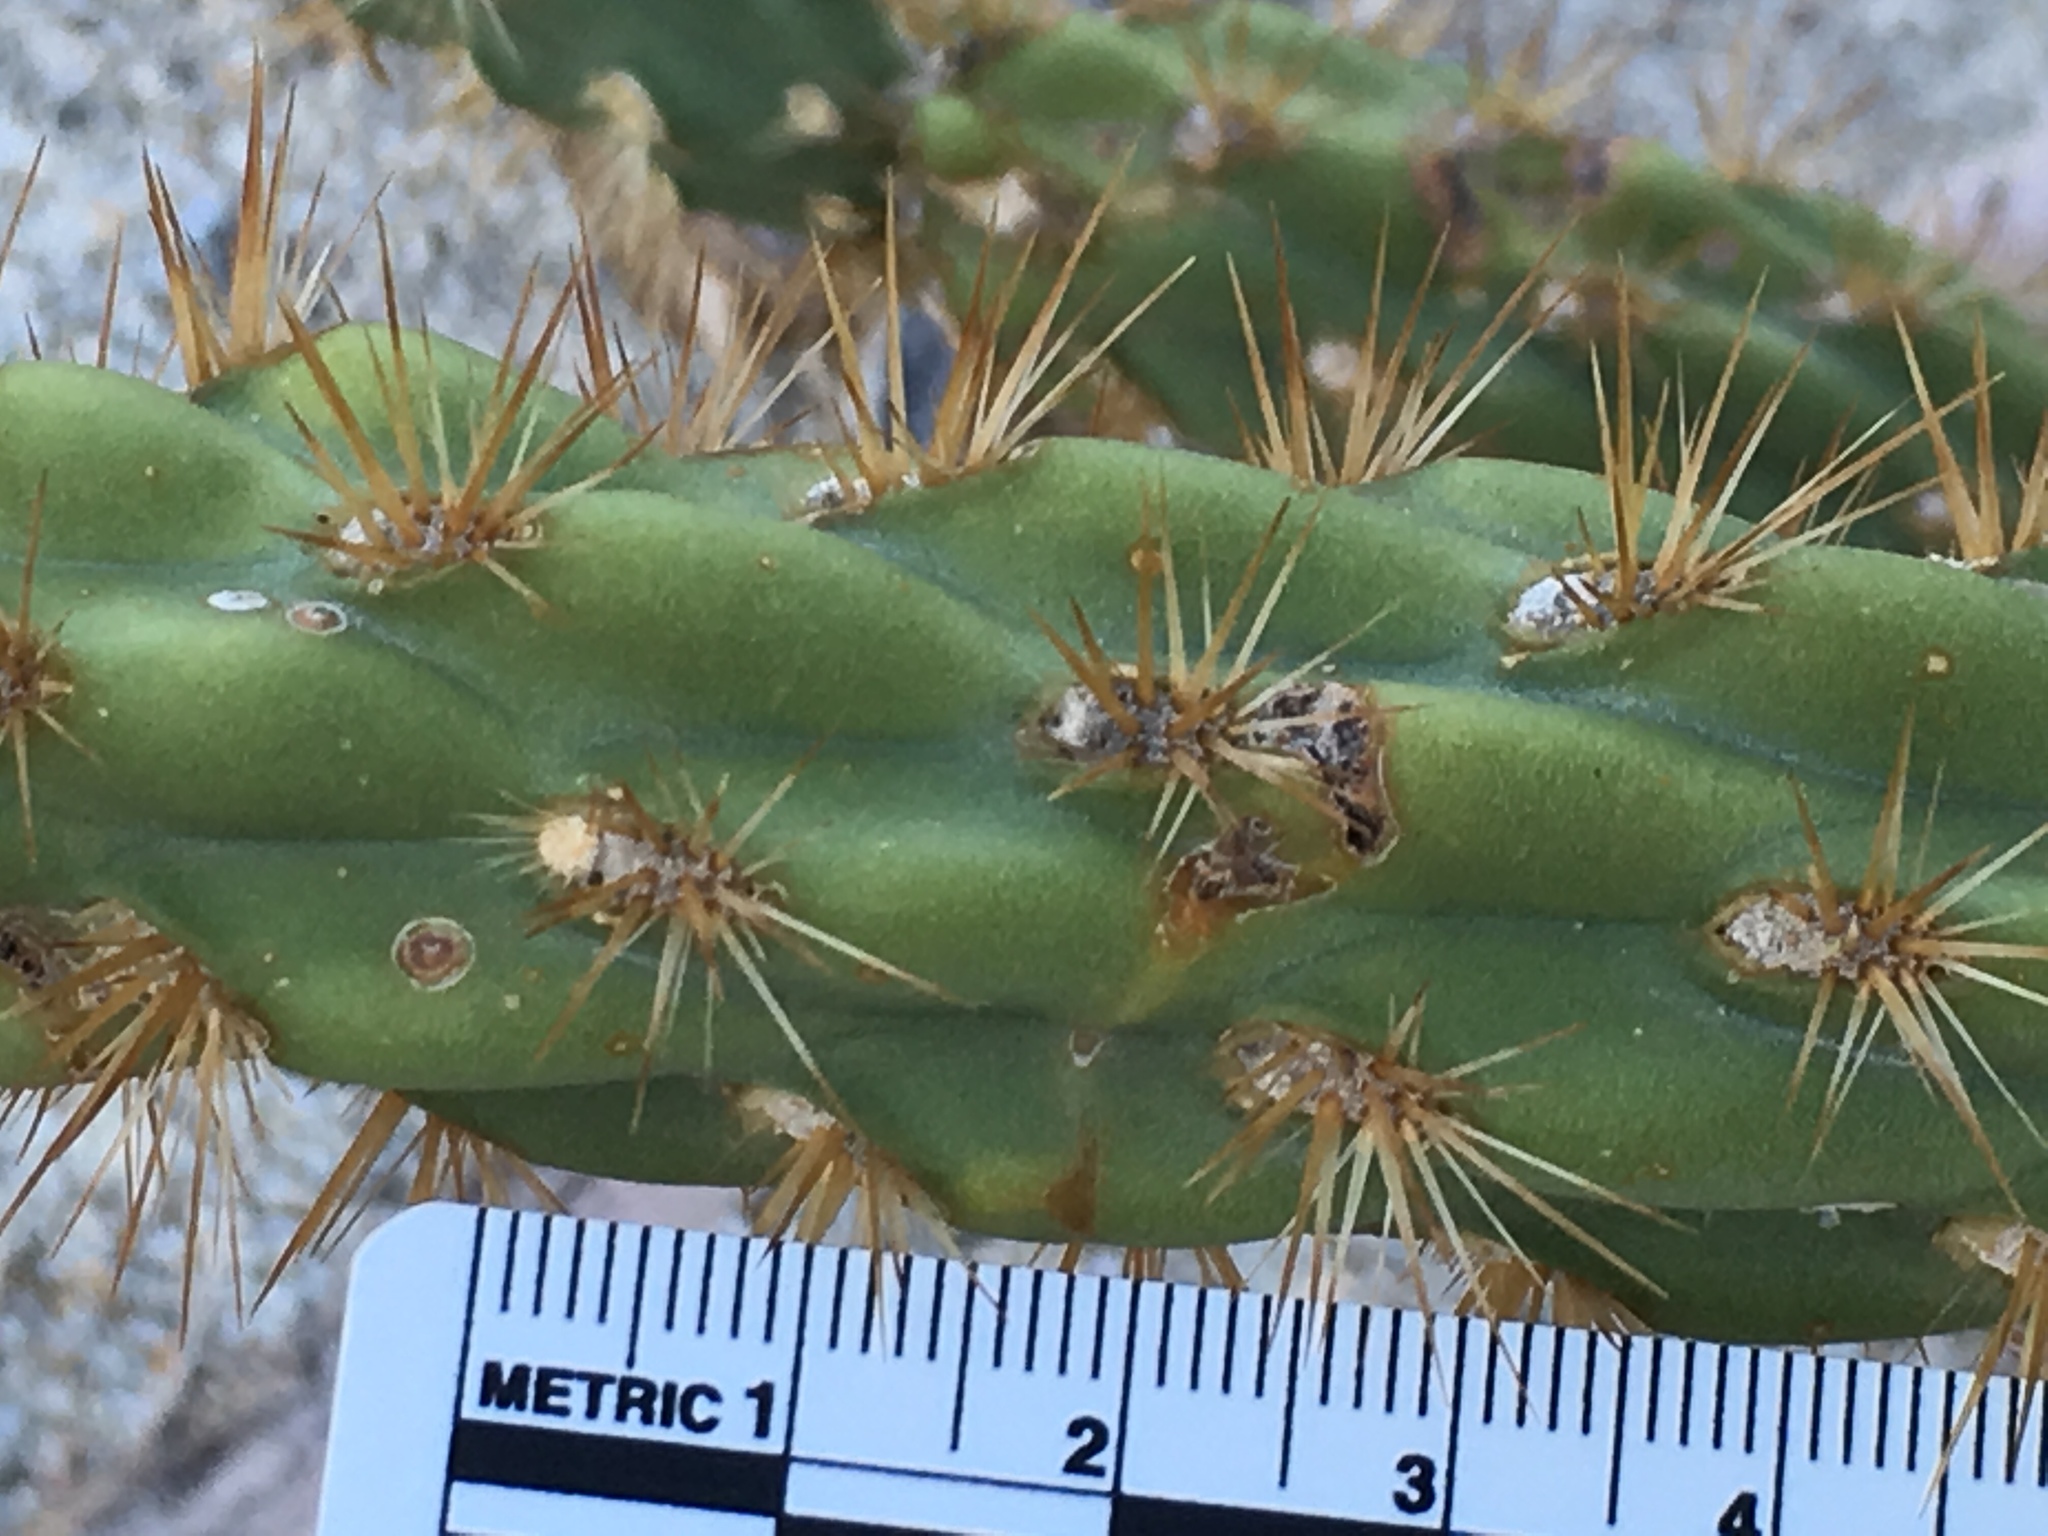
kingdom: Plantae
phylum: Tracheophyta
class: Magnoliopsida
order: Caryophyllales
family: Cactaceae
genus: Cylindropuntia
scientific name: Cylindropuntia ganderi
